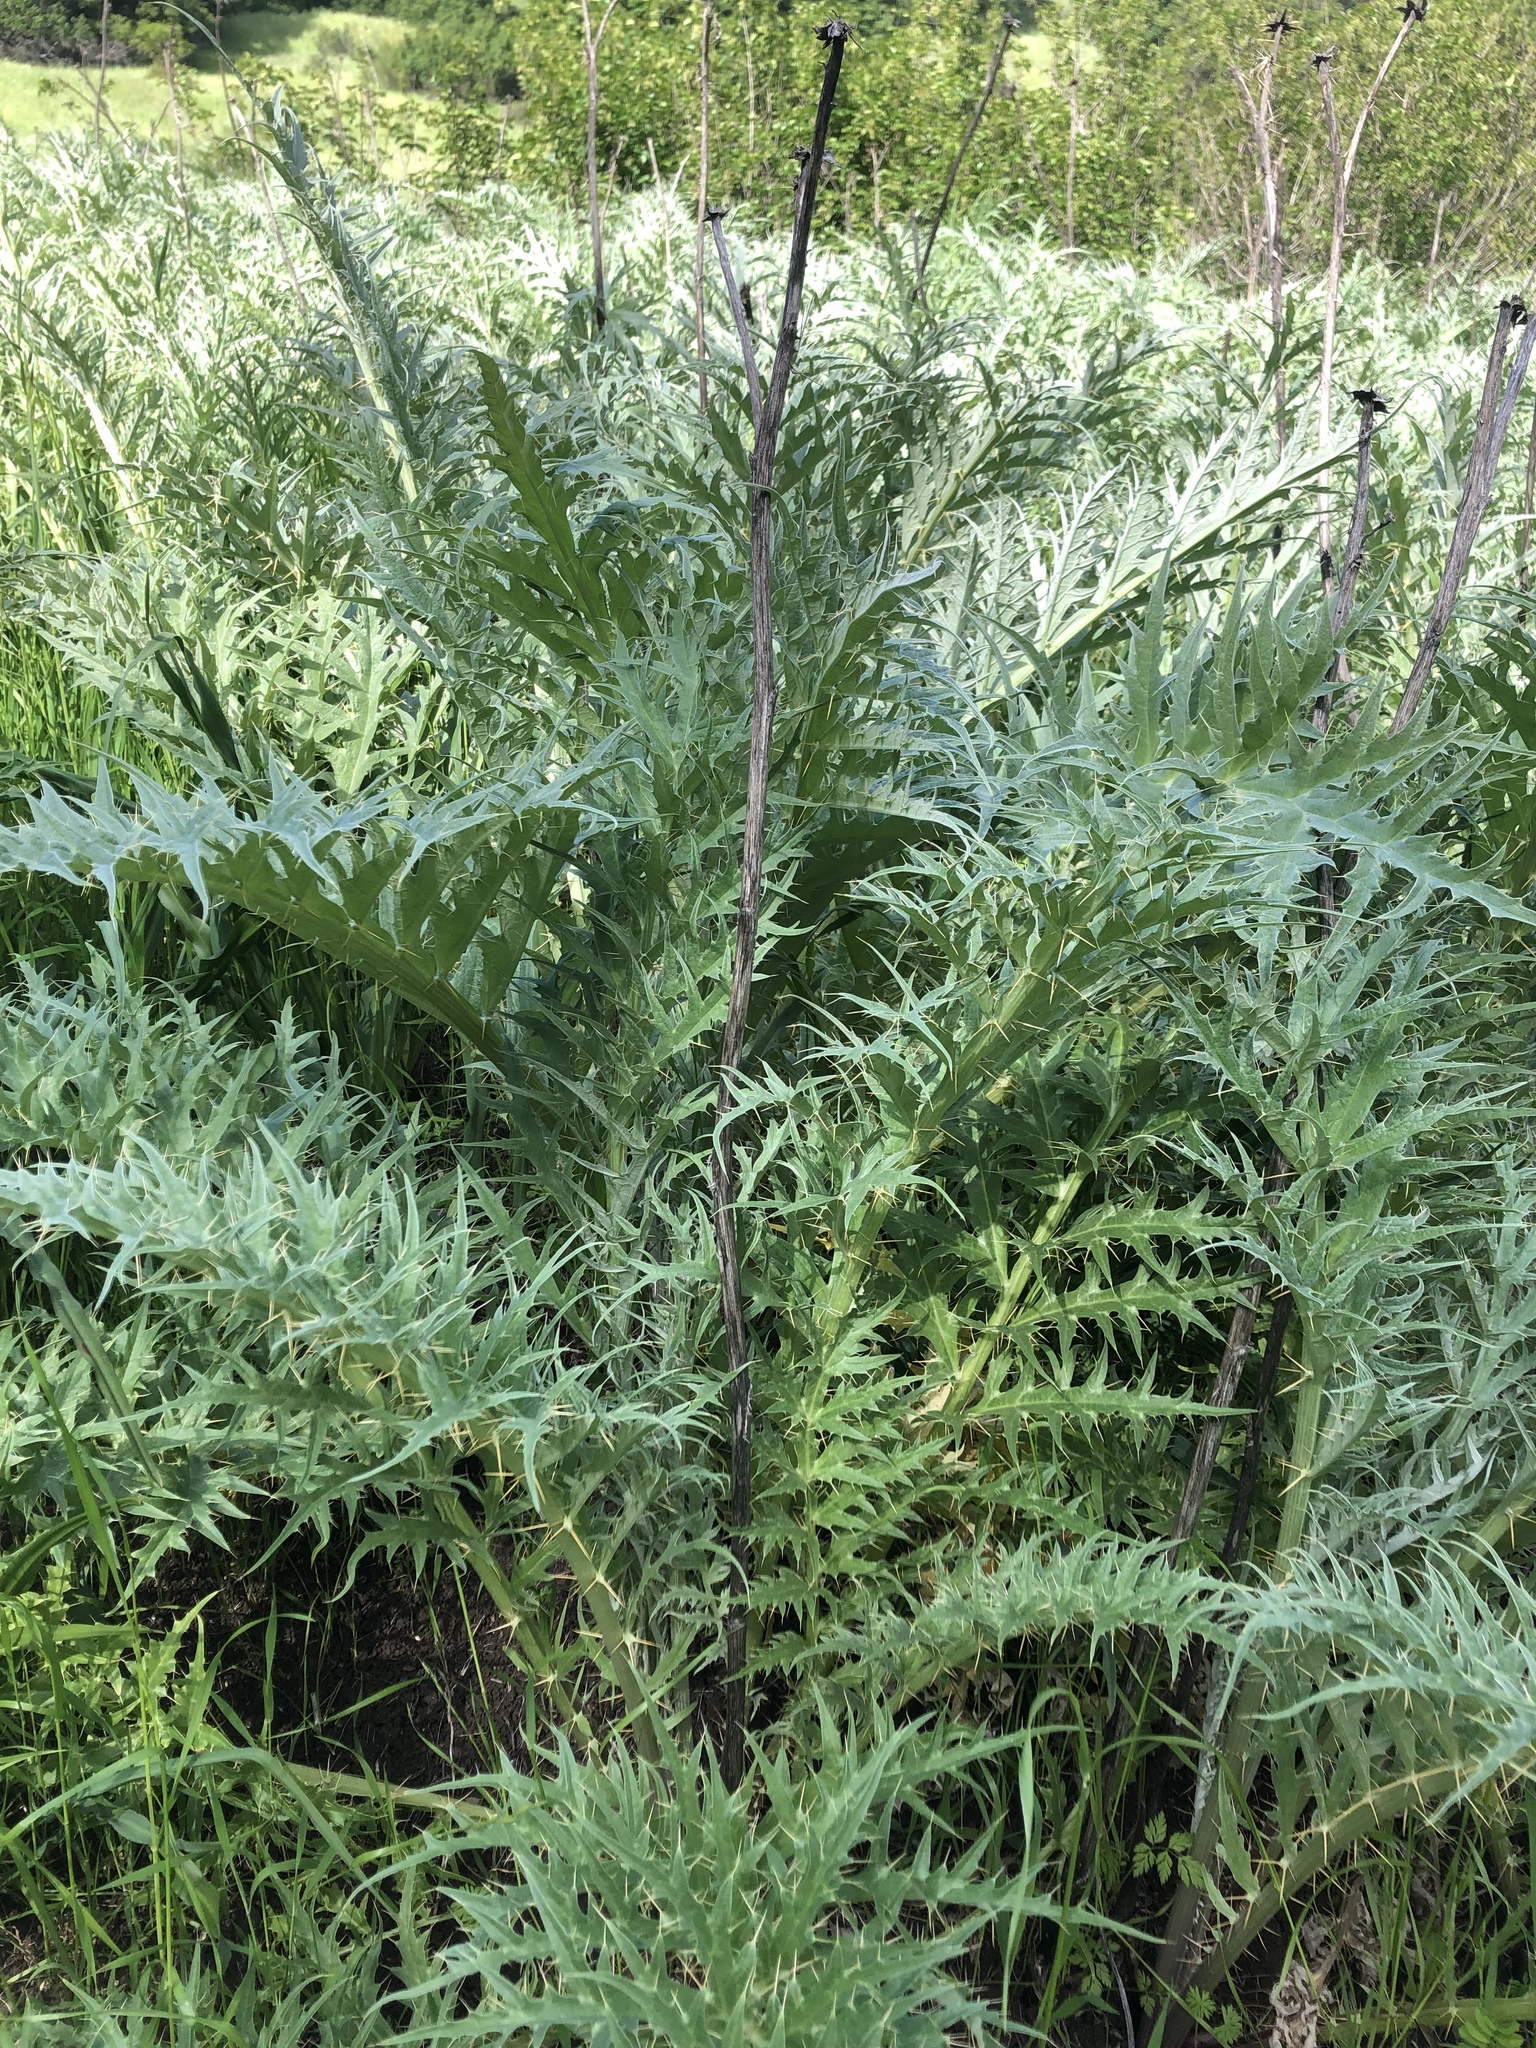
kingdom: Plantae
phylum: Tracheophyta
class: Magnoliopsida
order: Asterales
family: Asteraceae
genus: Cynara
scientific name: Cynara cardunculus
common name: Globe artichoke
